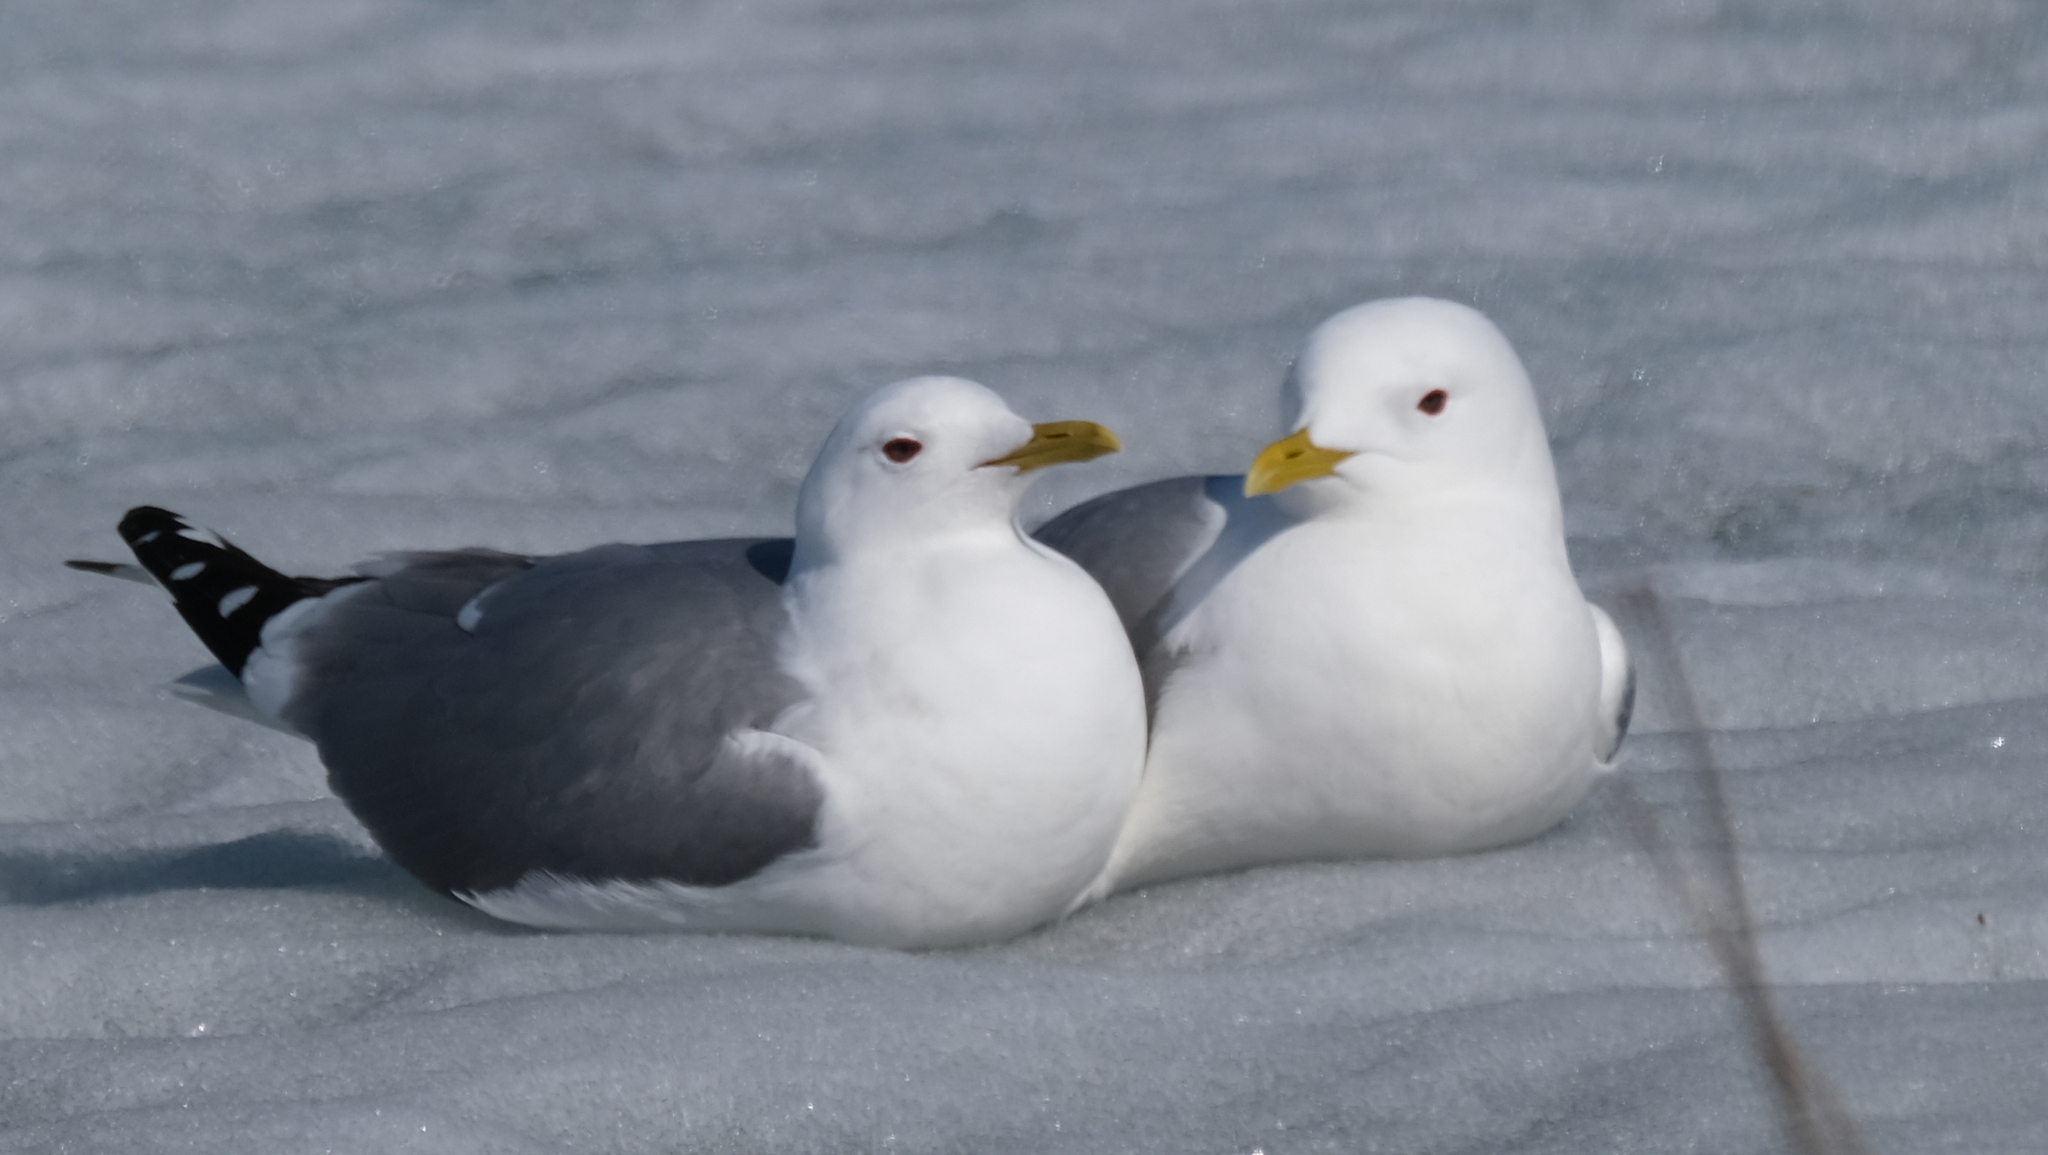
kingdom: Animalia
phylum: Chordata
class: Aves
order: Charadriiformes
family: Laridae
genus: Larus
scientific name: Larus brachyrhynchus
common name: Short-billed gull
